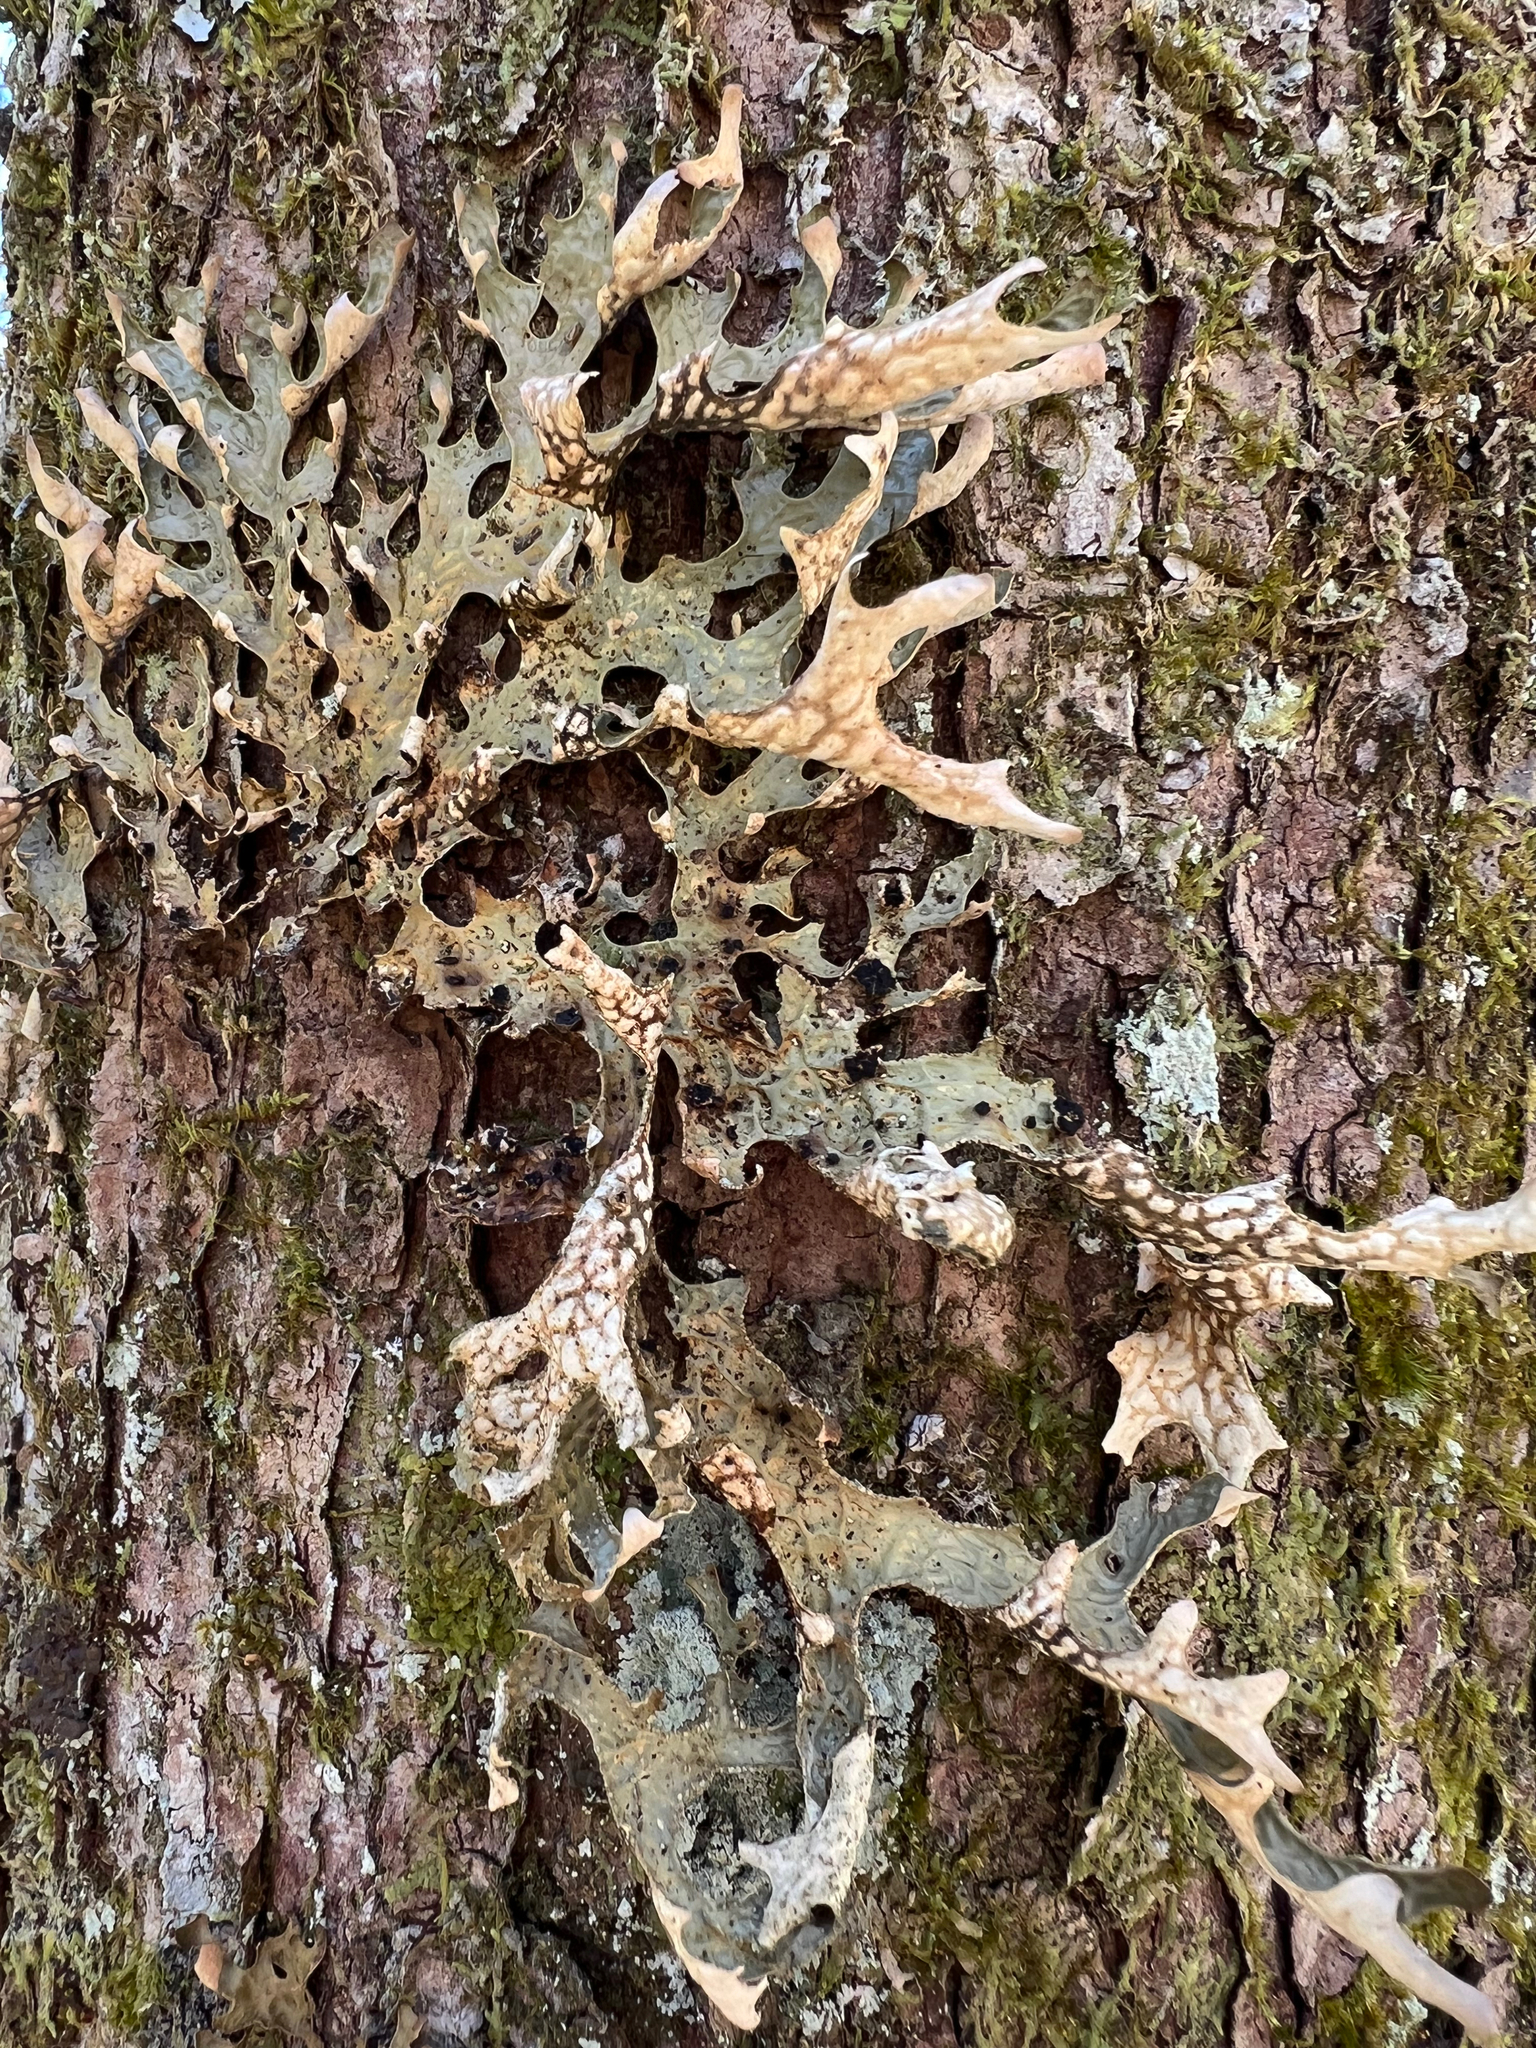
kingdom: Fungi
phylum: Ascomycota
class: Lecanoromycetes
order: Peltigerales
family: Lobariaceae
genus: Lobaria
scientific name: Lobaria pulmonaria
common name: Lungwort
